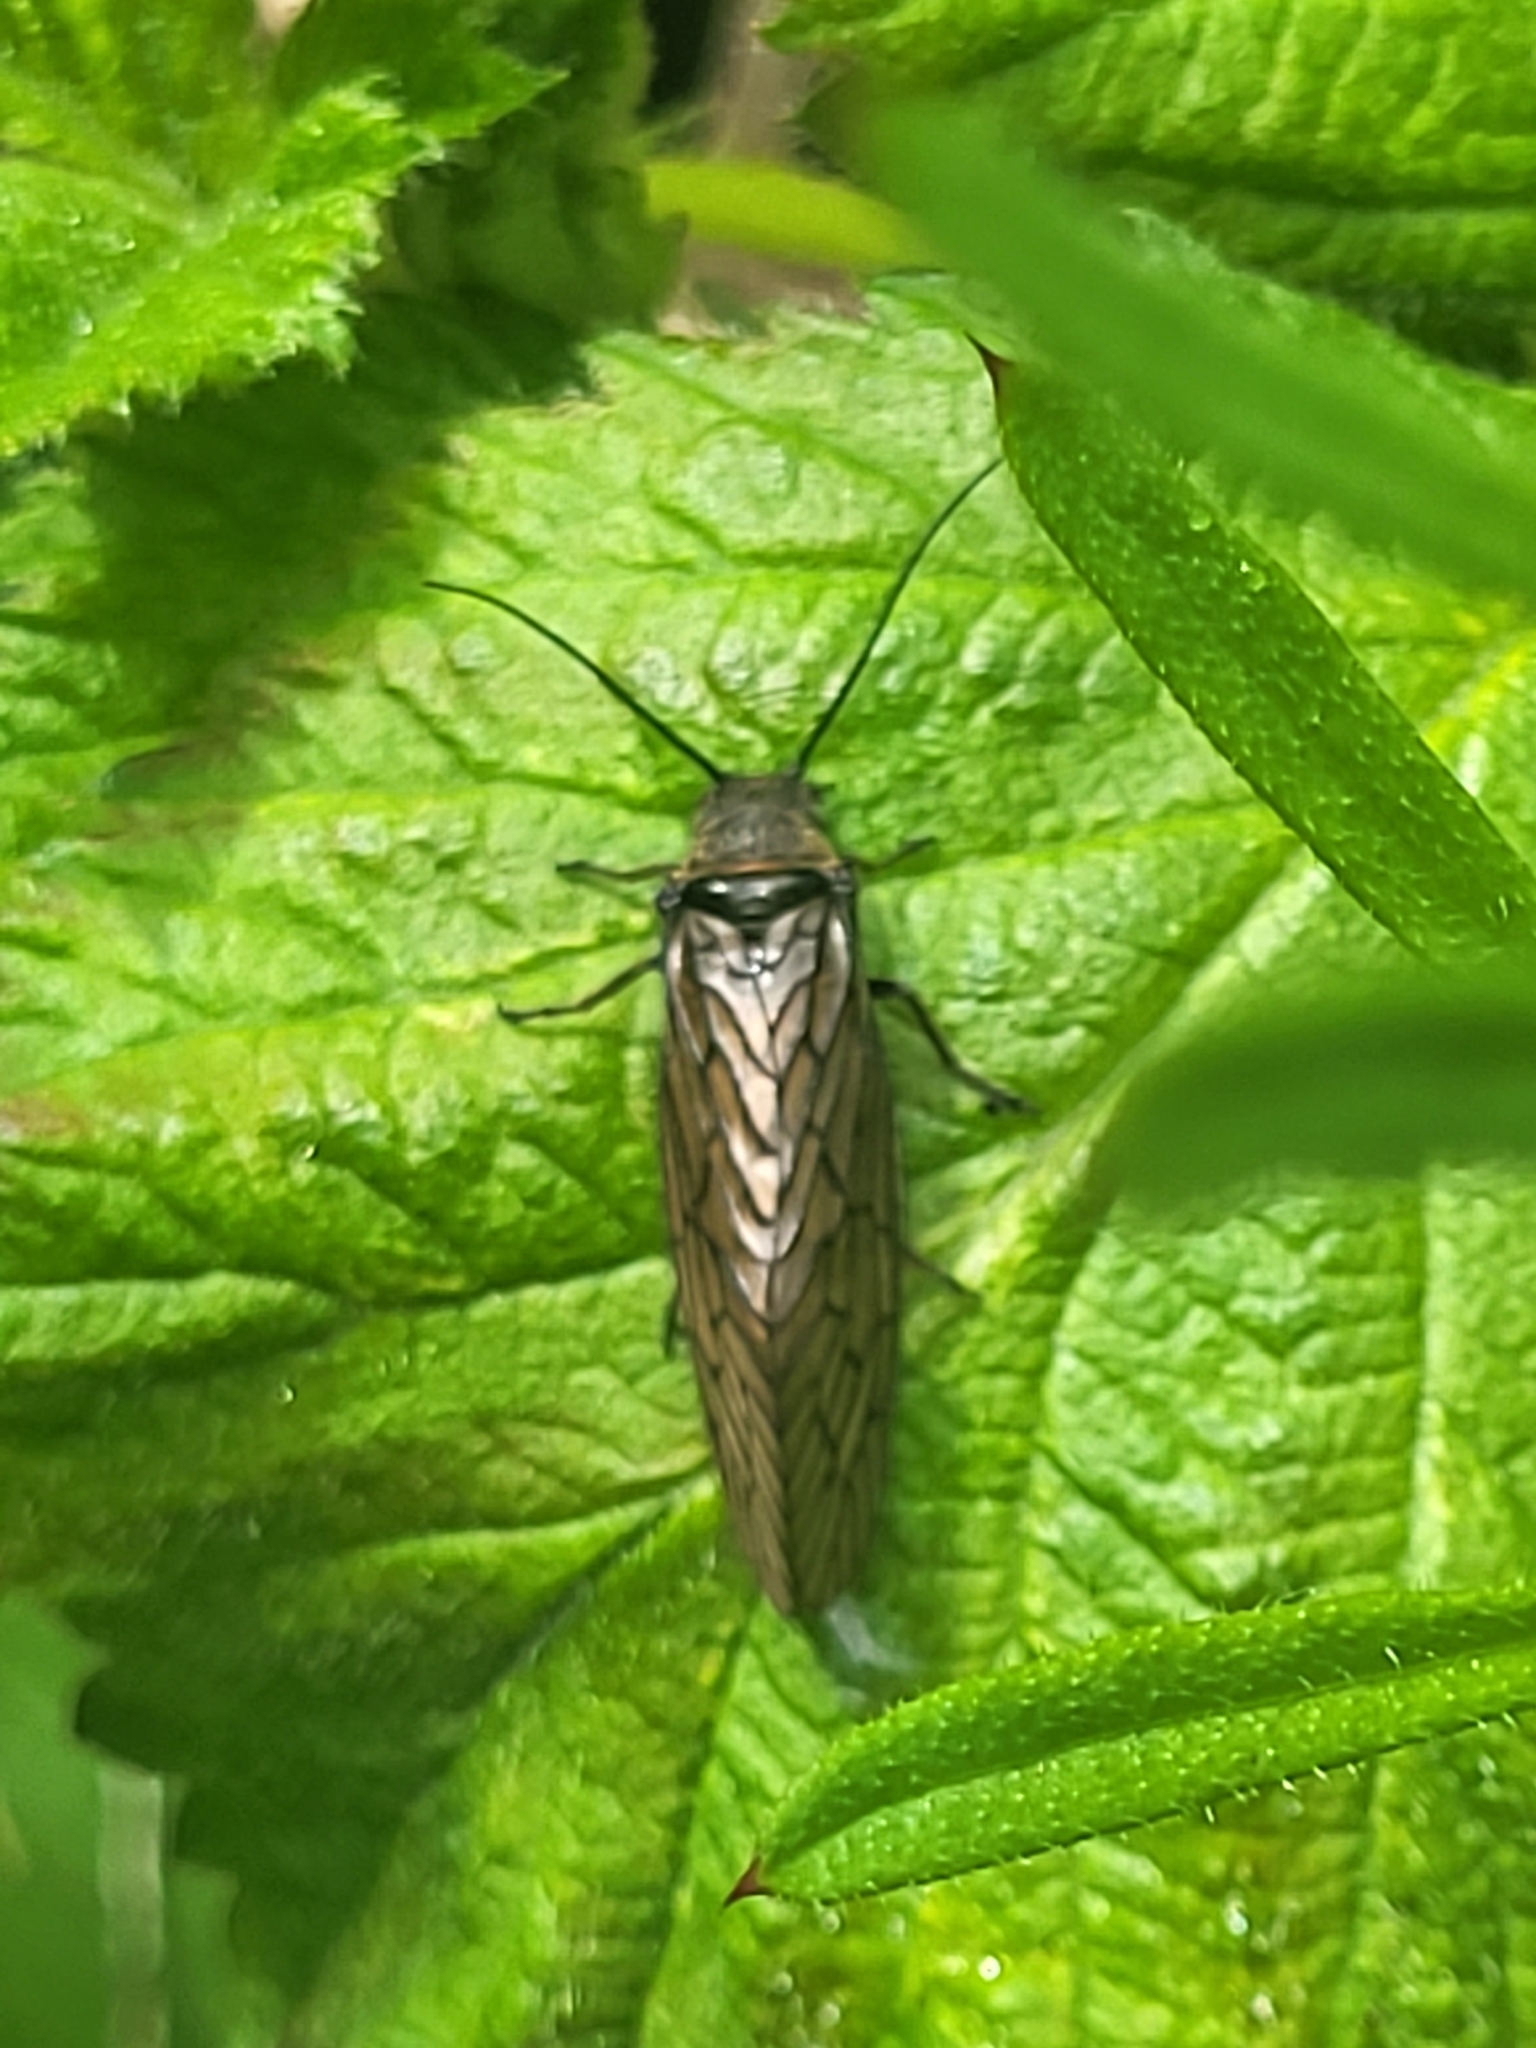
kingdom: Animalia
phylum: Arthropoda
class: Insecta
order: Megaloptera
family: Sialidae
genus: Sialis
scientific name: Sialis
